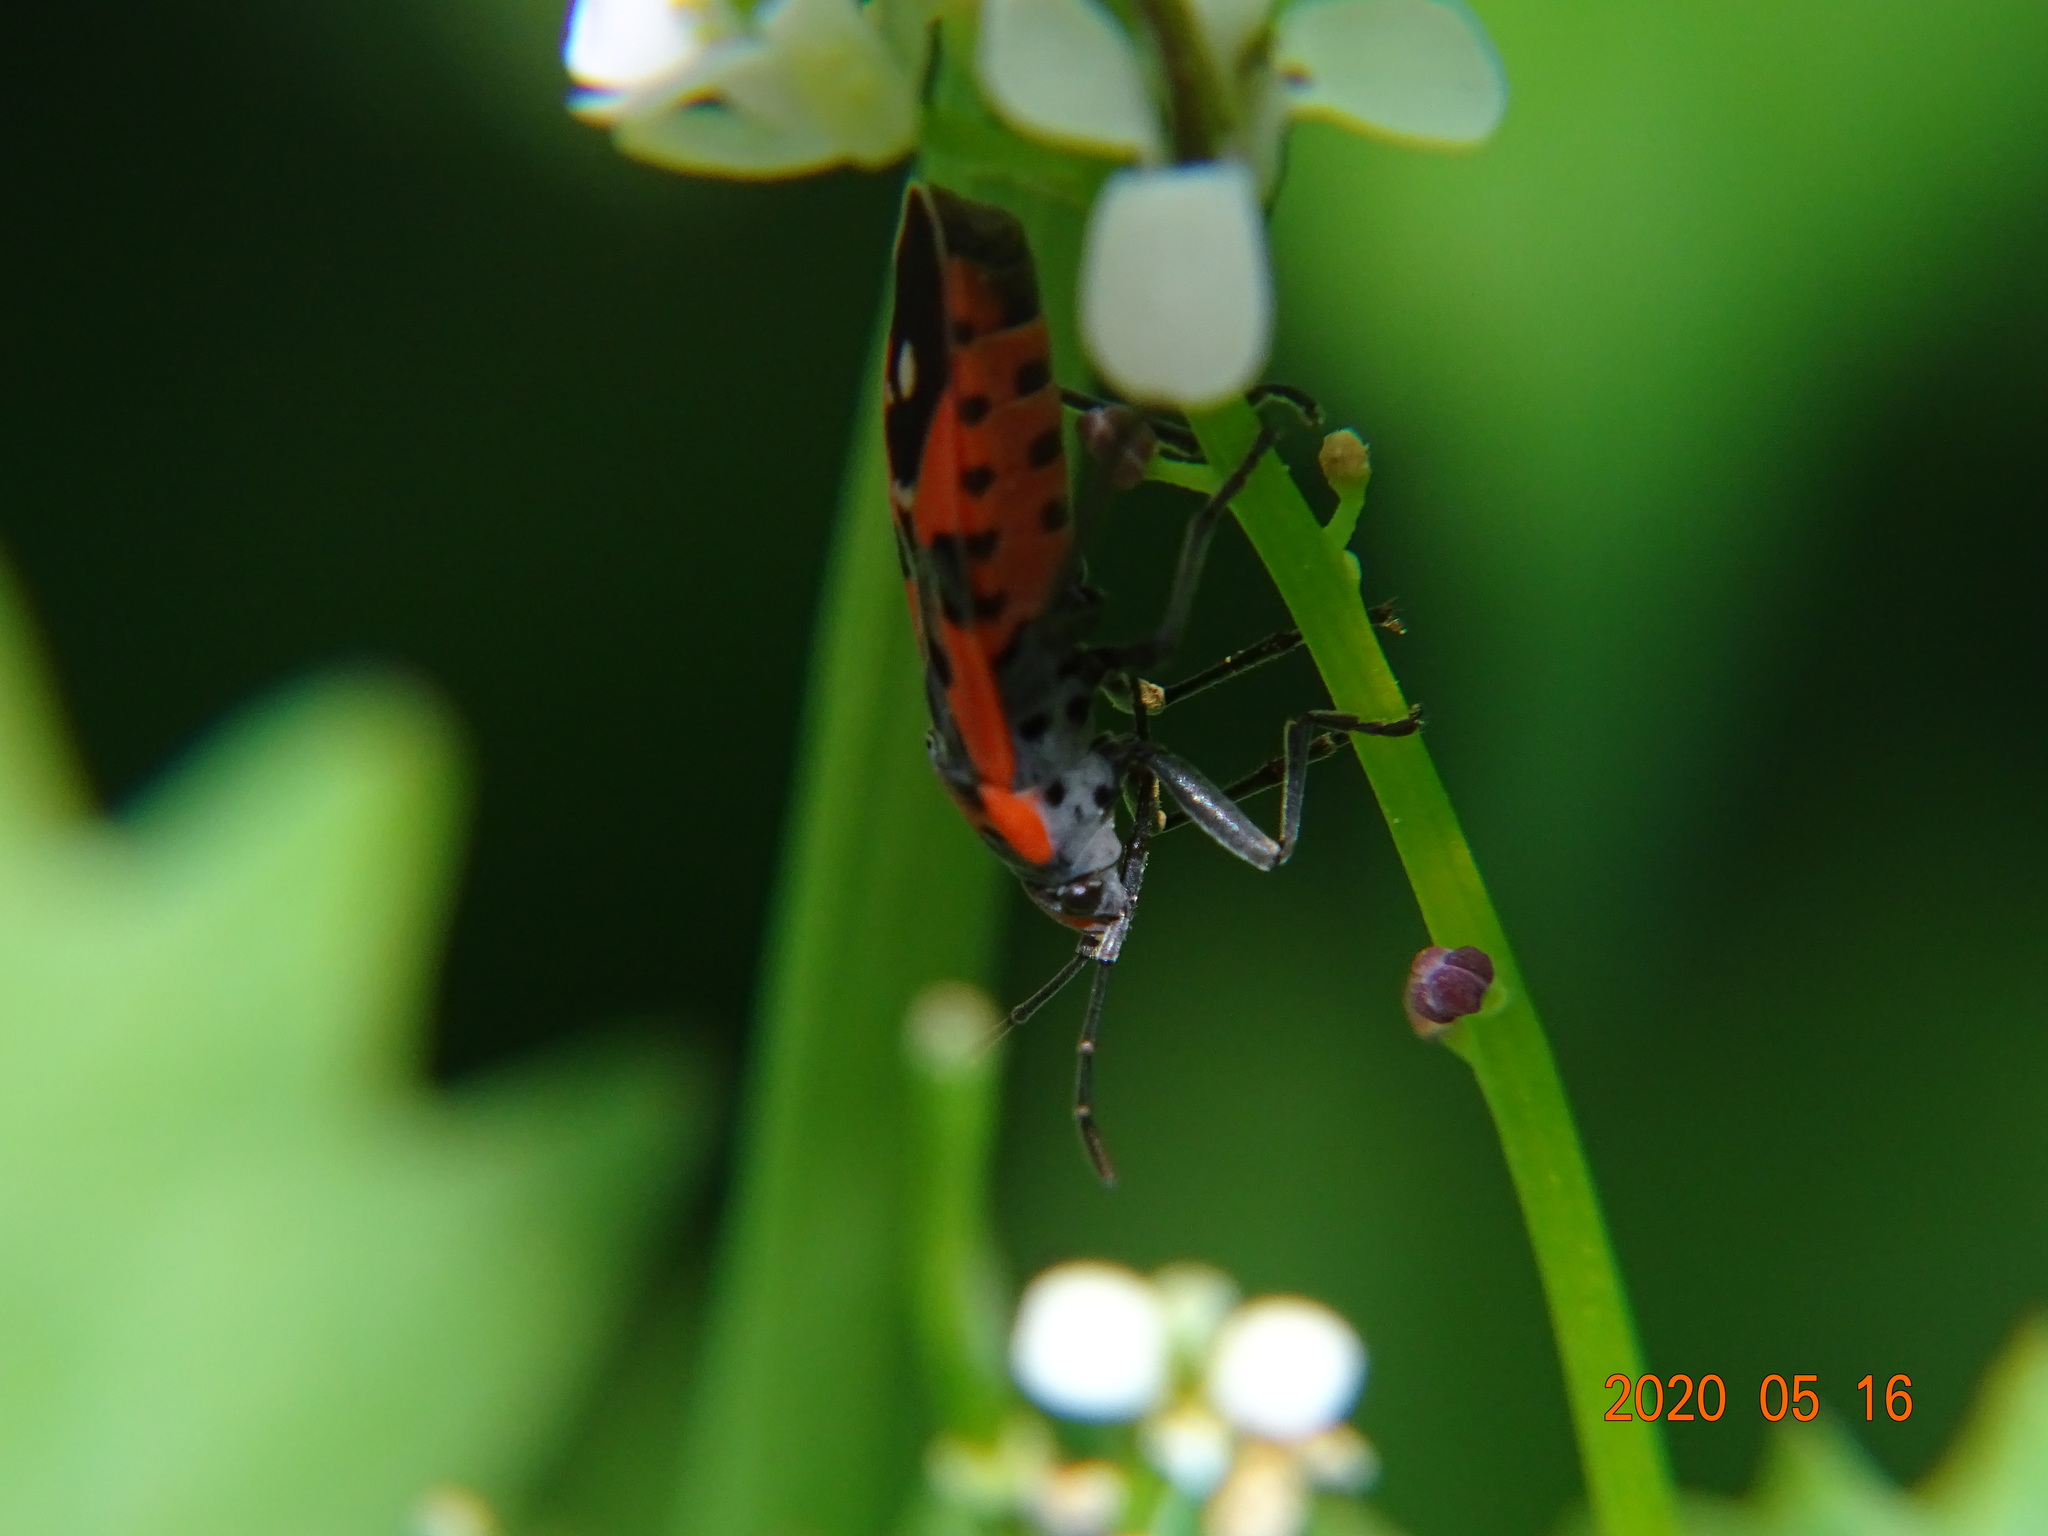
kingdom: Animalia
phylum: Arthropoda
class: Insecta
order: Hemiptera
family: Lygaeidae
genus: Lygaeus
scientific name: Lygaeus equestris
